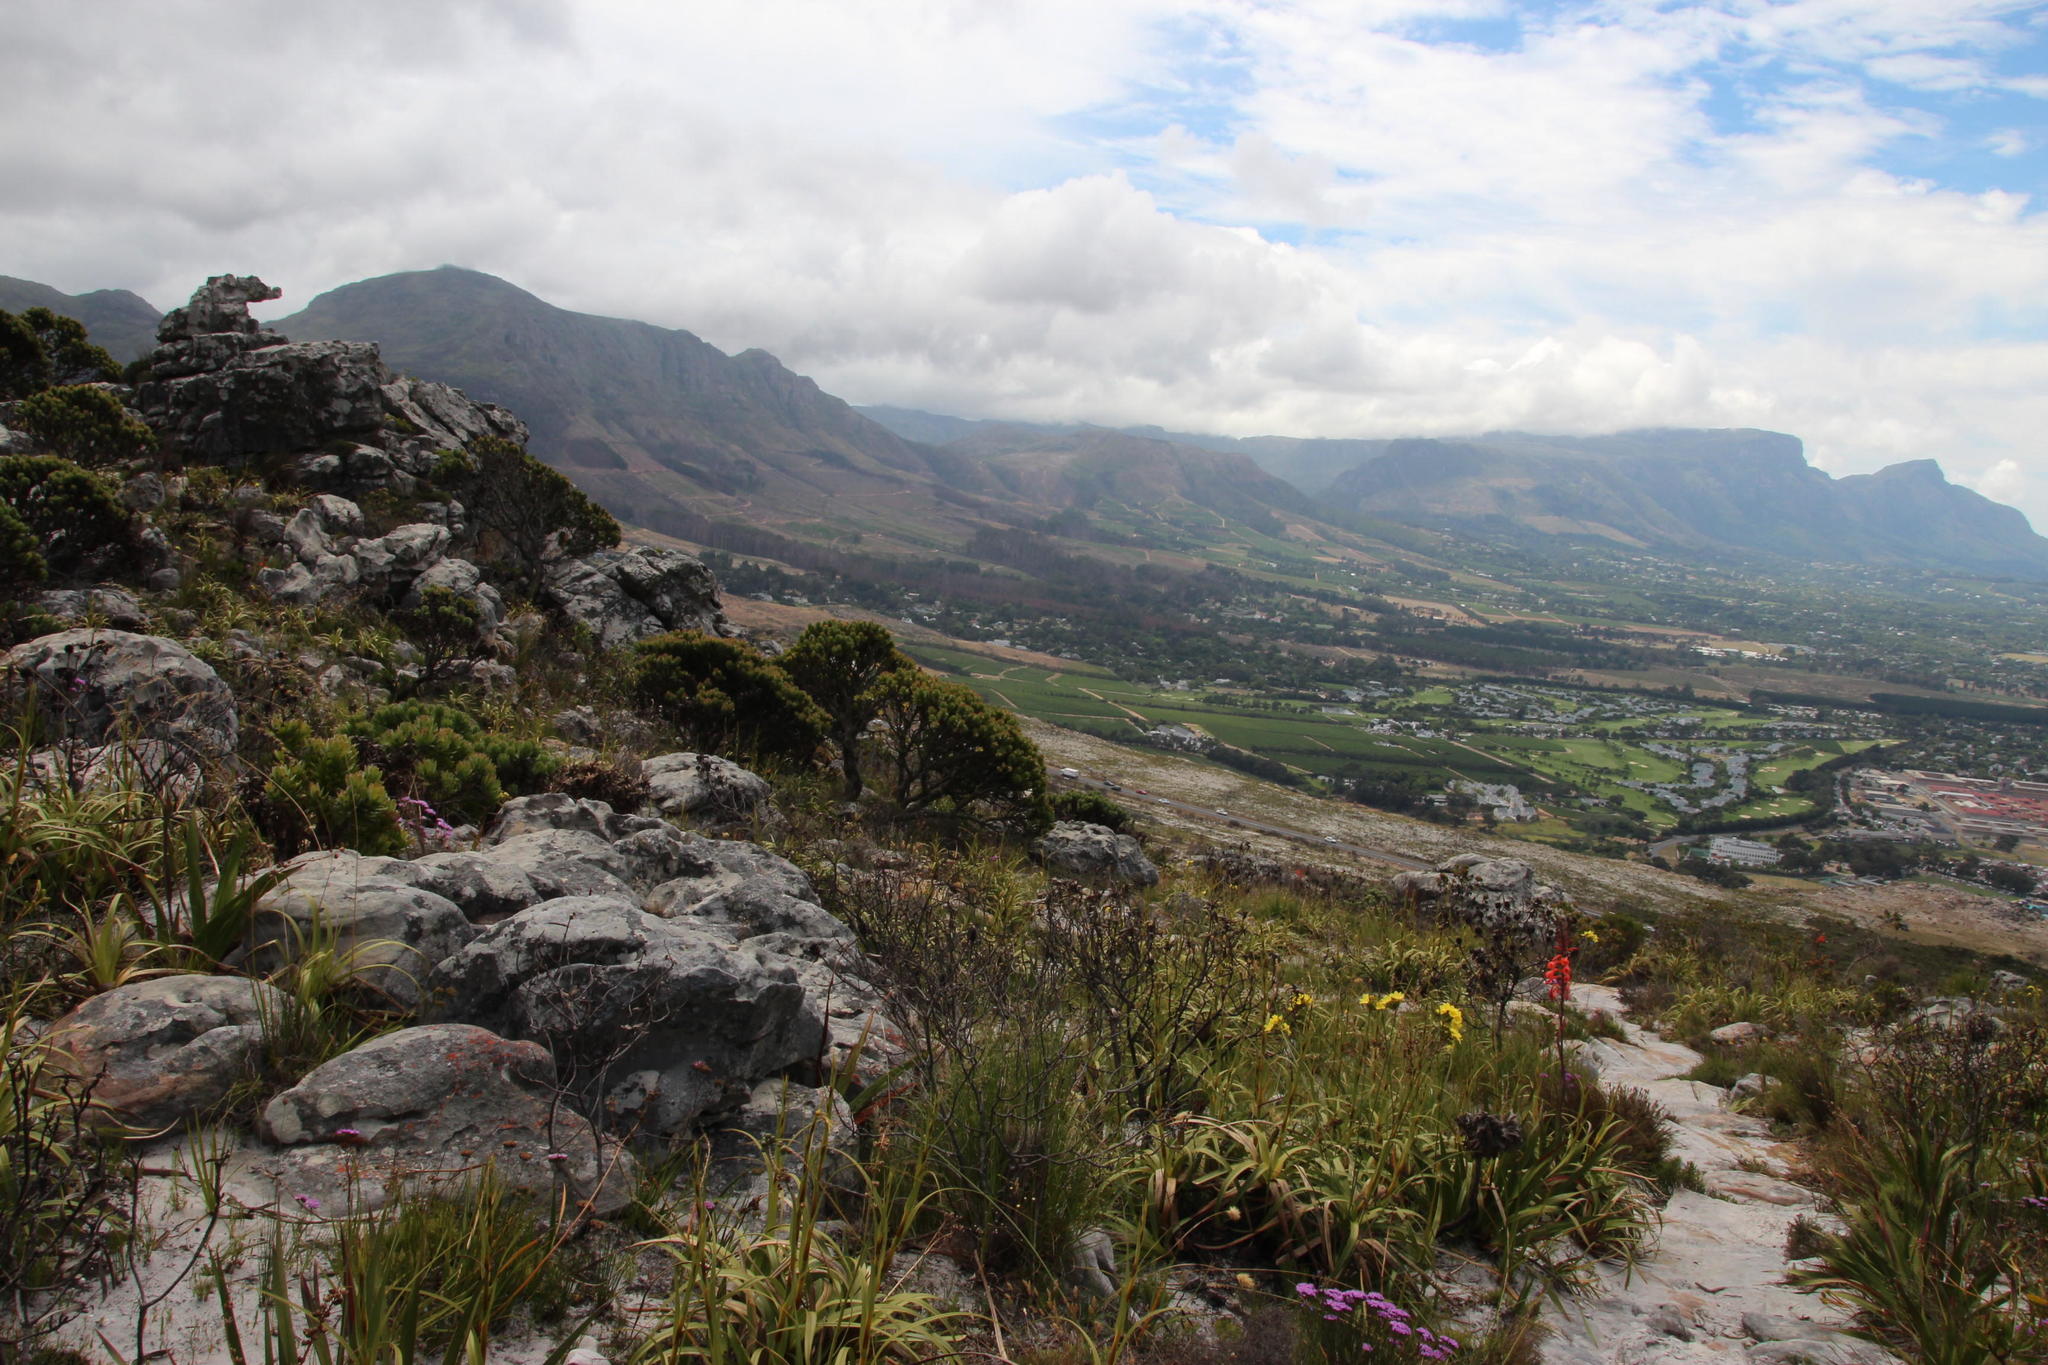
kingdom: Plantae
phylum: Tracheophyta
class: Magnoliopsida
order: Proteales
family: Proteaceae
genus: Mimetes
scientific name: Mimetes fimbriifolius
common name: Fringed bottlebrush
